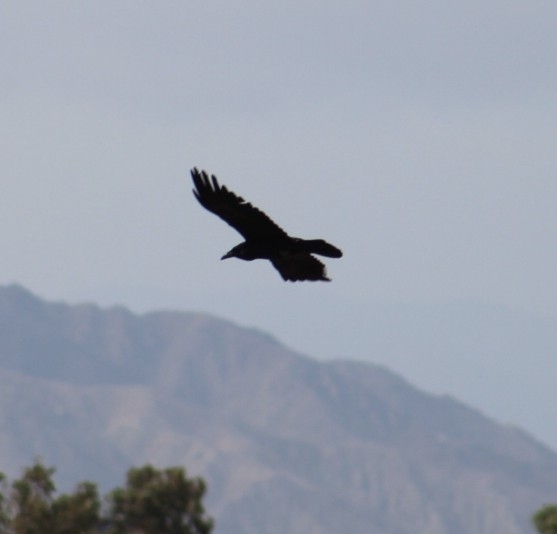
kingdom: Animalia
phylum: Chordata
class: Aves
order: Passeriformes
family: Corvidae
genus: Corvus
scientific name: Corvus corax
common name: Common raven
